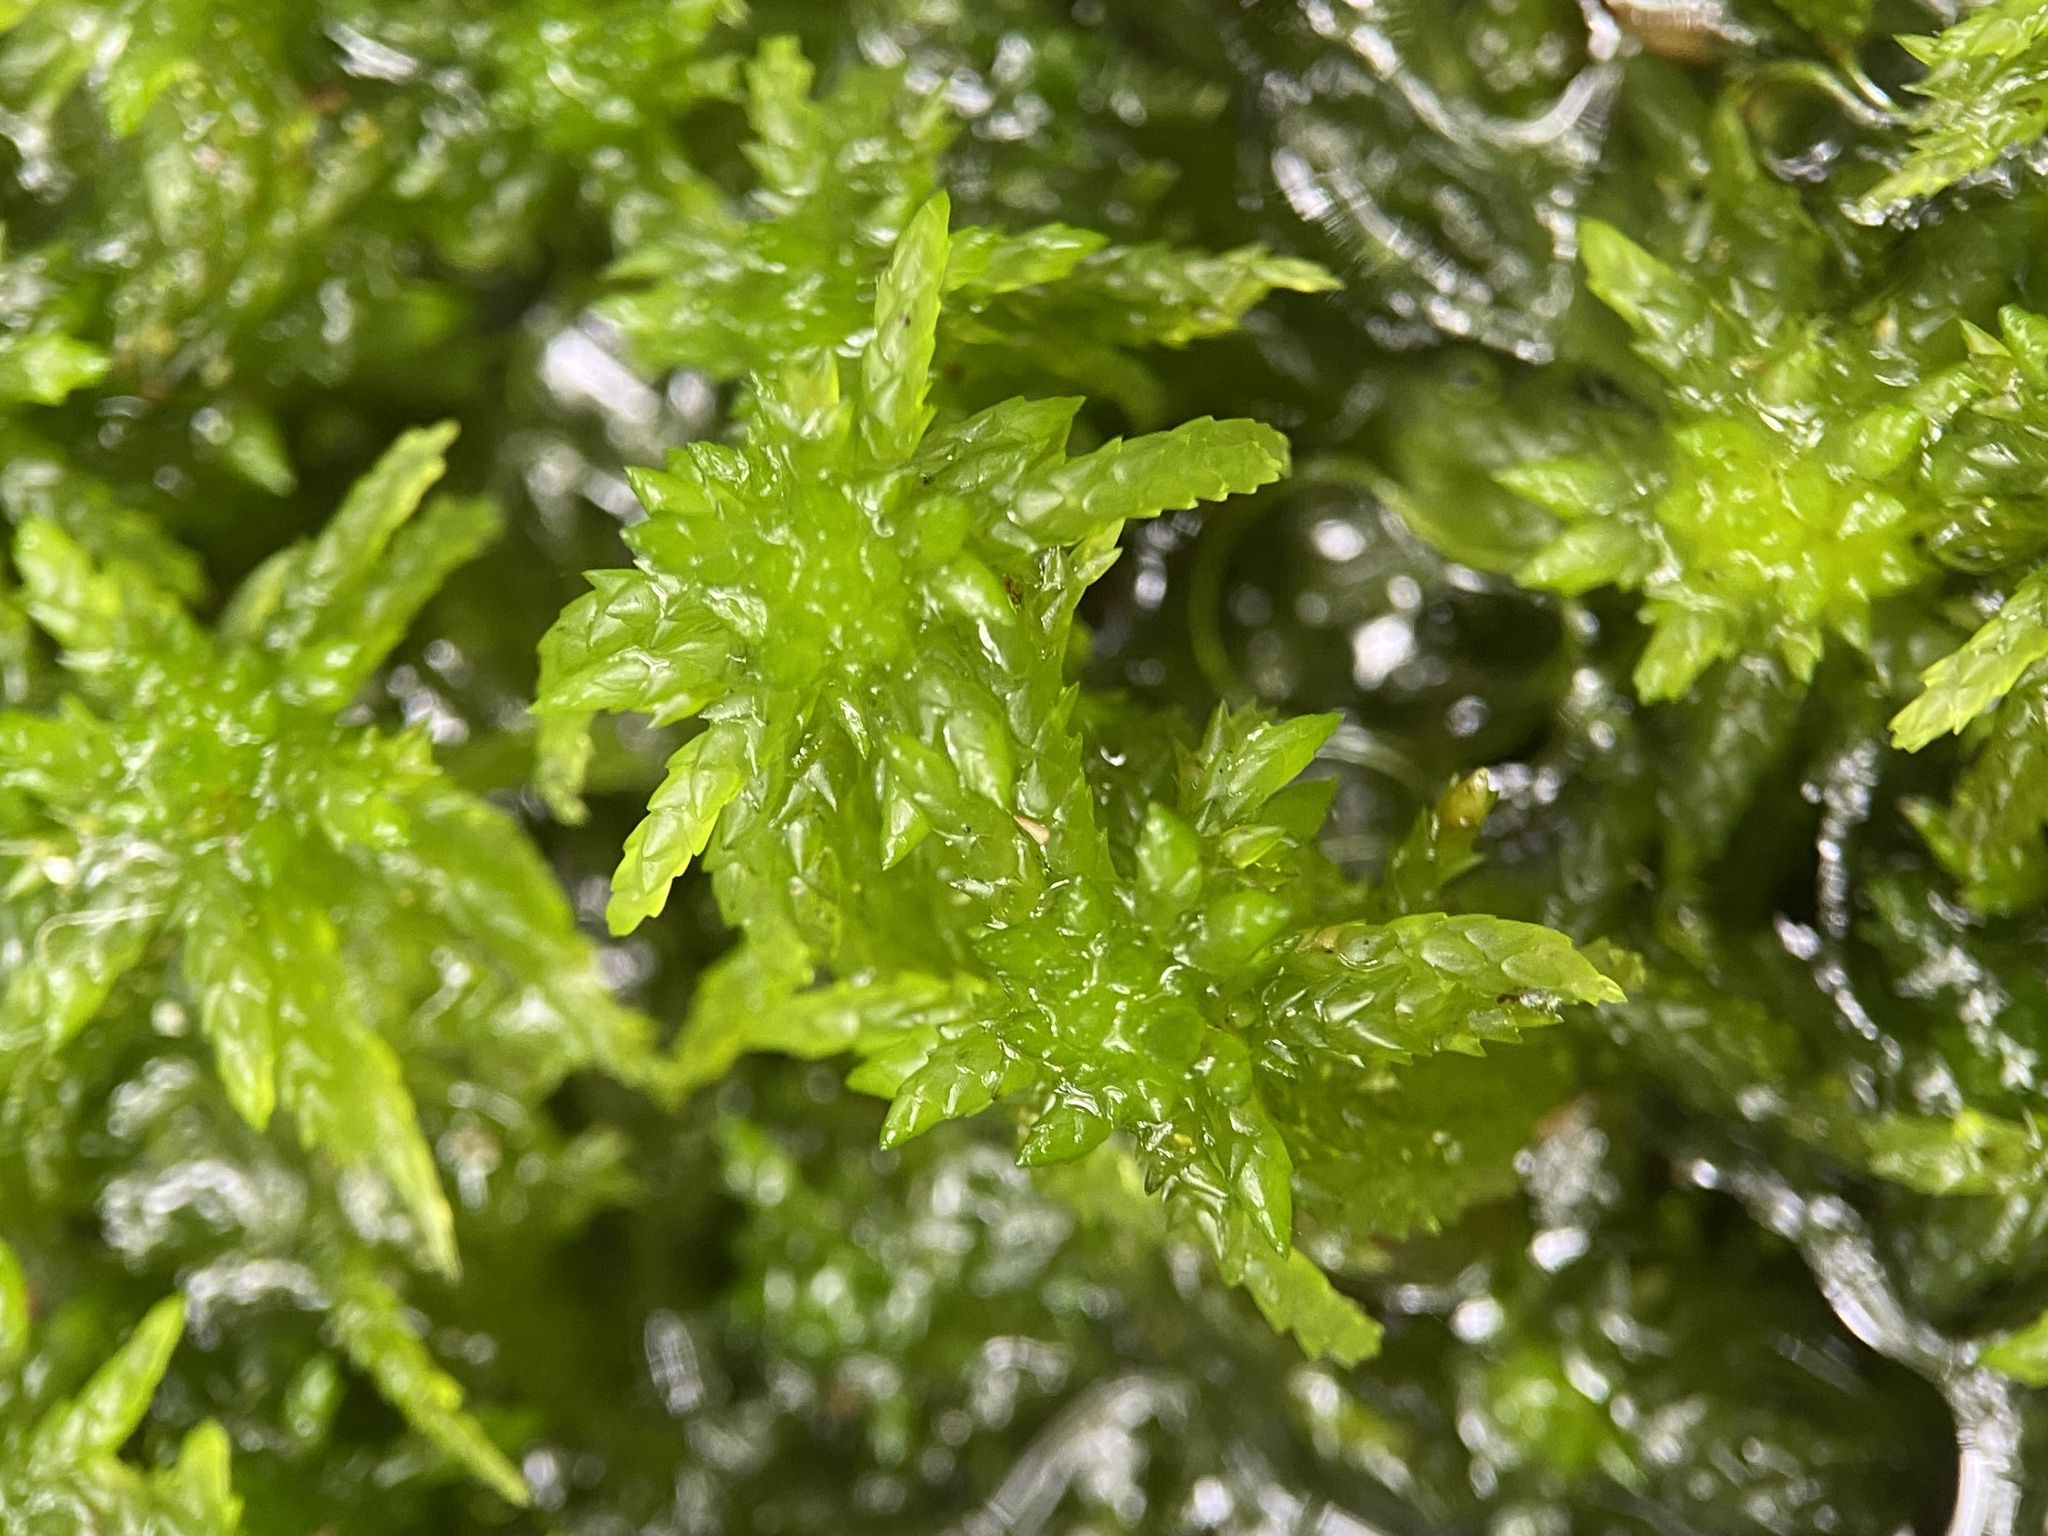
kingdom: Plantae
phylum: Bryophyta
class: Sphagnopsida
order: Sphagnales
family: Sphagnaceae
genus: Sphagnum
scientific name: Sphagnum lescurii
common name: Lesquereux's peat moss
